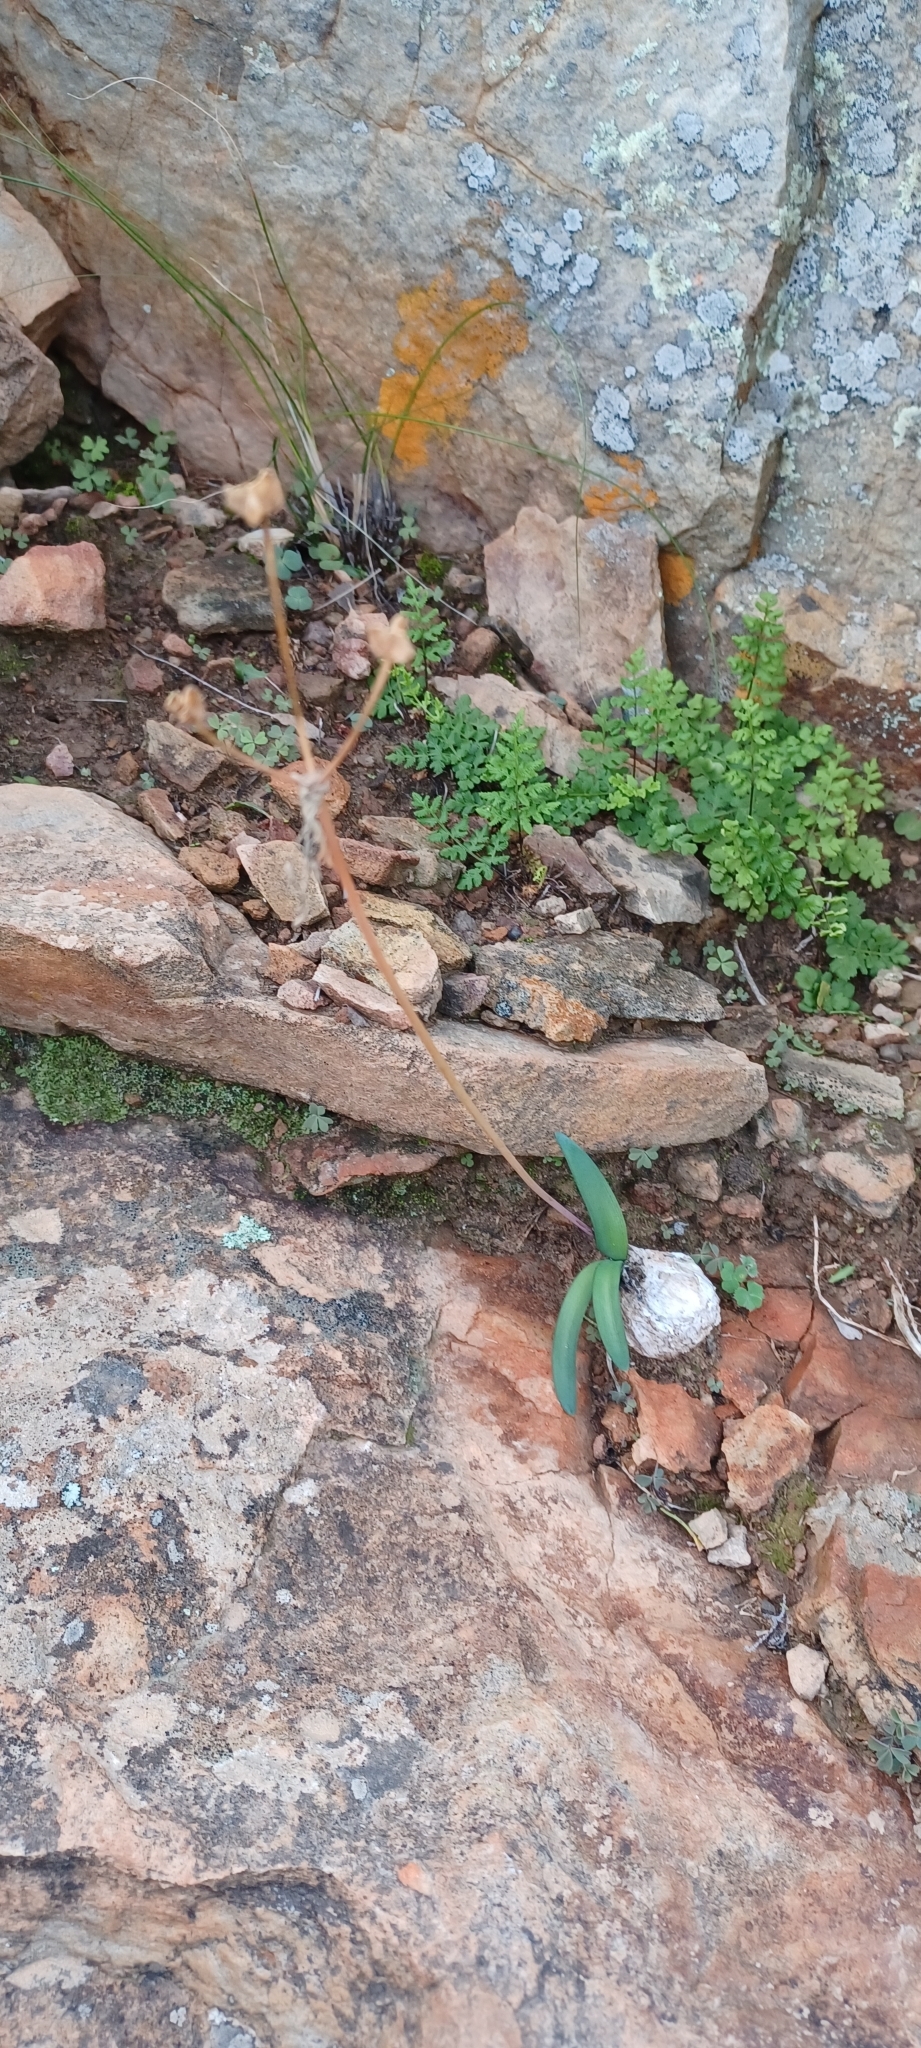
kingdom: Plantae
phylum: Tracheophyta
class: Liliopsida
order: Asparagales
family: Amaryllidaceae
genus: Nerine
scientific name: Nerine humilis
